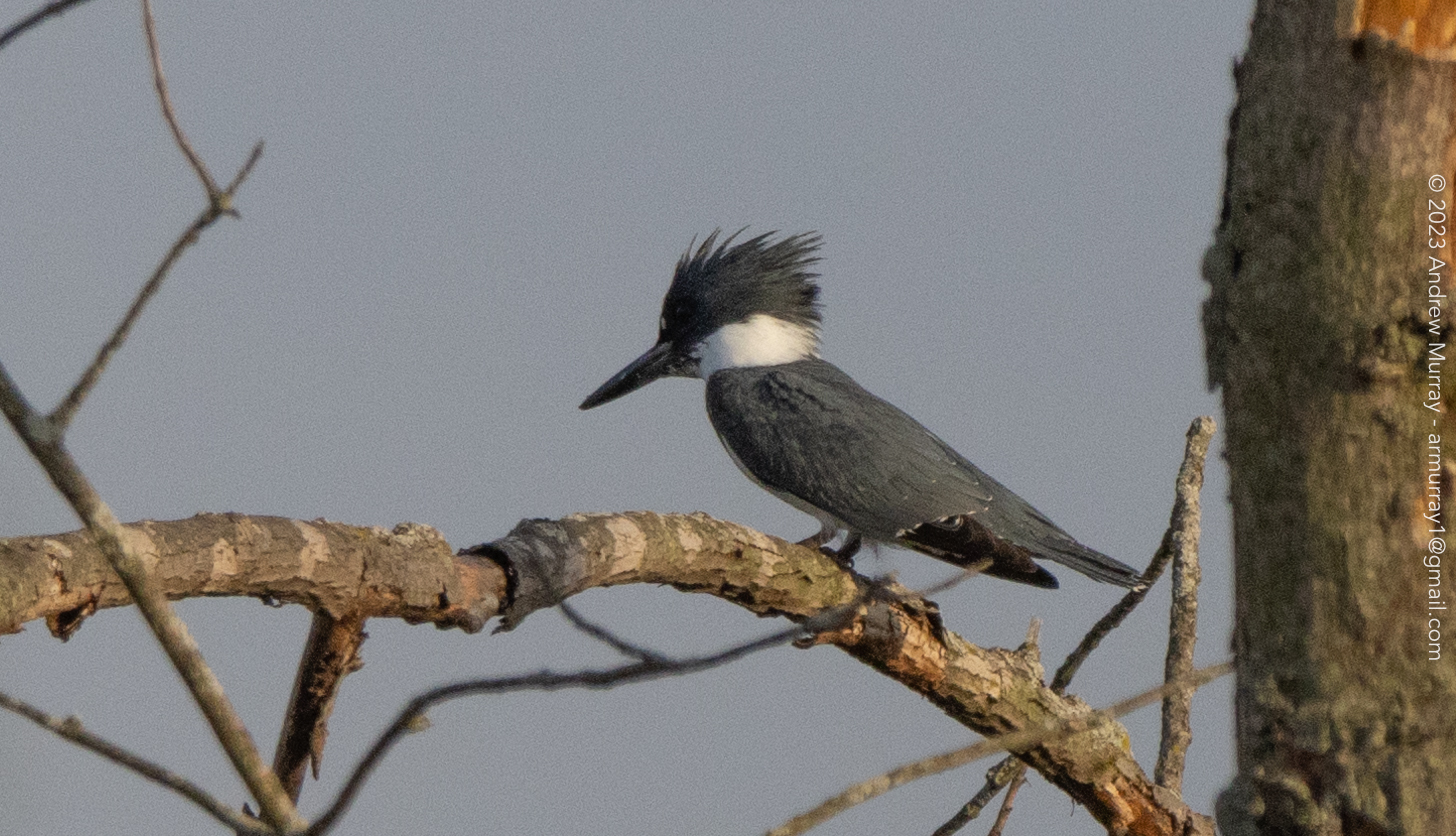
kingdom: Animalia
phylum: Chordata
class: Aves
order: Coraciiformes
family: Alcedinidae
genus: Megaceryle
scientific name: Megaceryle alcyon
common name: Belted kingfisher
